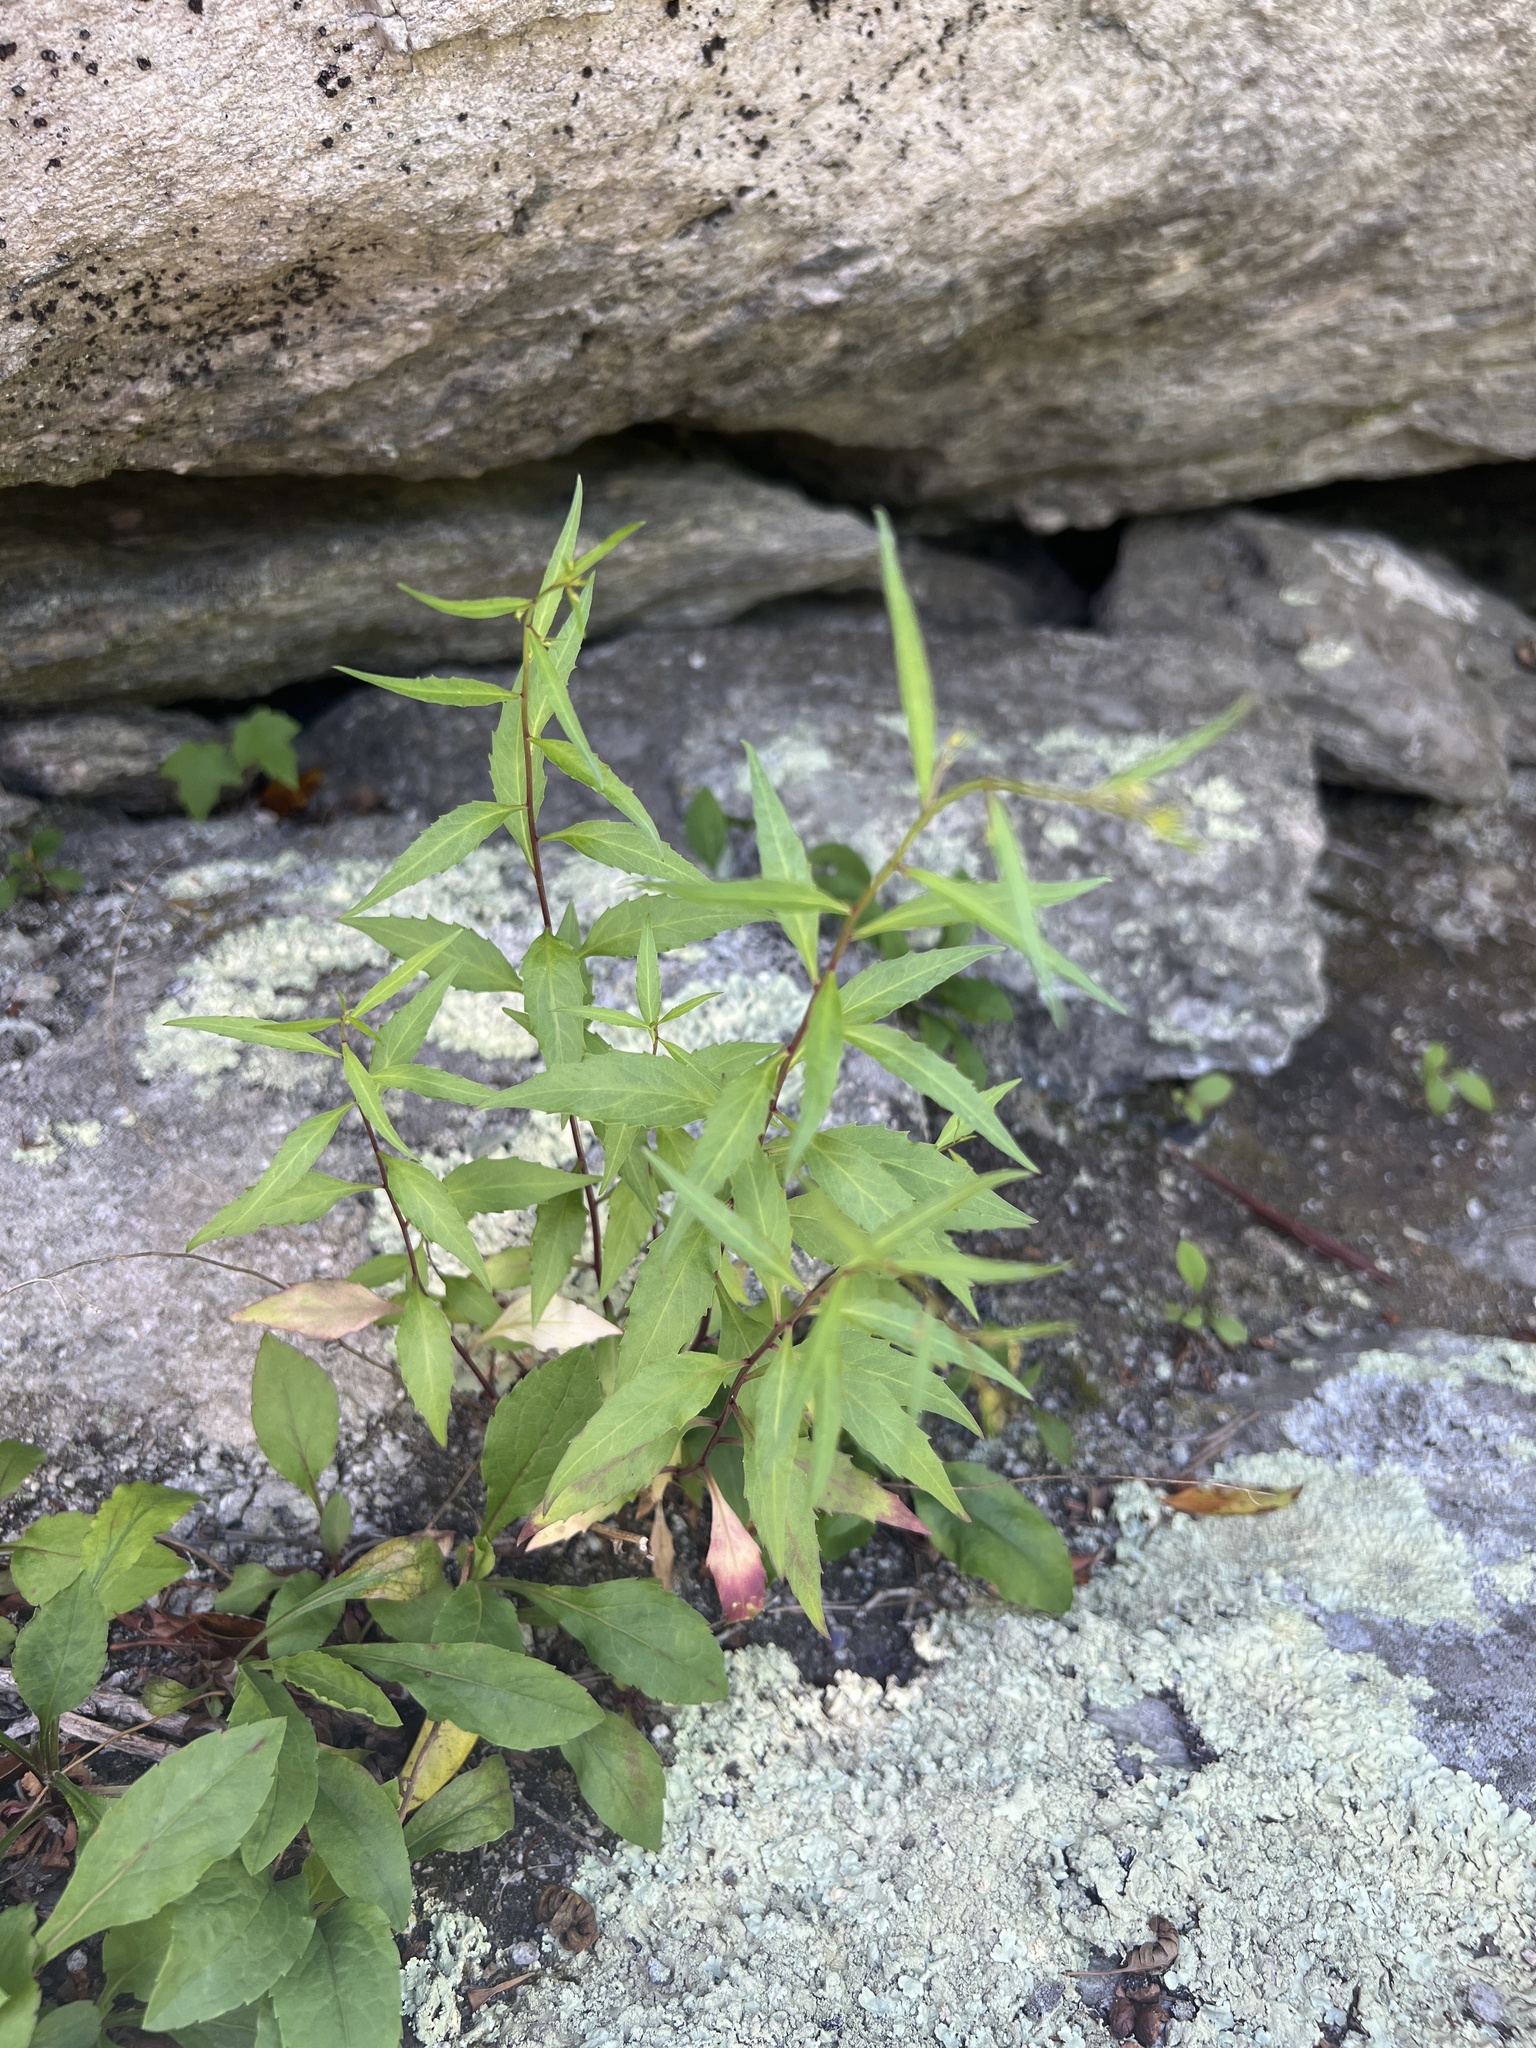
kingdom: Plantae
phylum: Tracheophyta
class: Magnoliopsida
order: Asterales
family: Campanulaceae
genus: Campanula
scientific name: Campanula divaricata
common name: Appalachian bellflower
